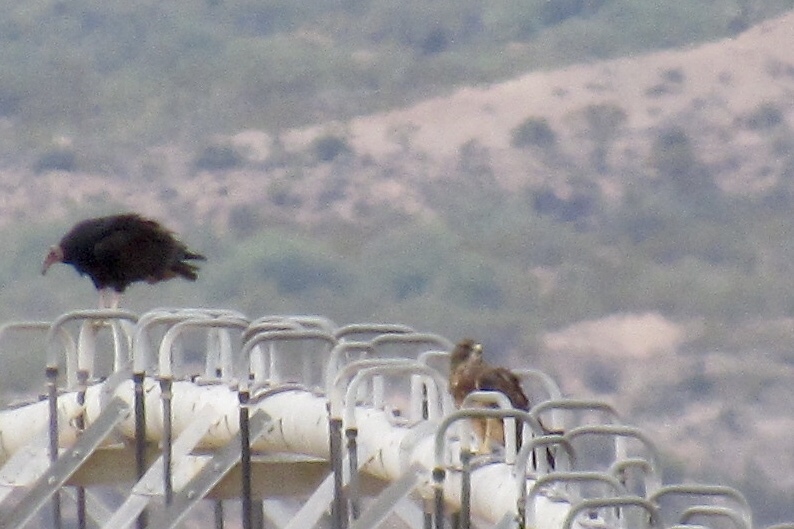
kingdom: Animalia
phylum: Chordata
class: Aves
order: Accipitriformes
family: Cathartidae
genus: Cathartes
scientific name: Cathartes aura
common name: Turkey vulture
